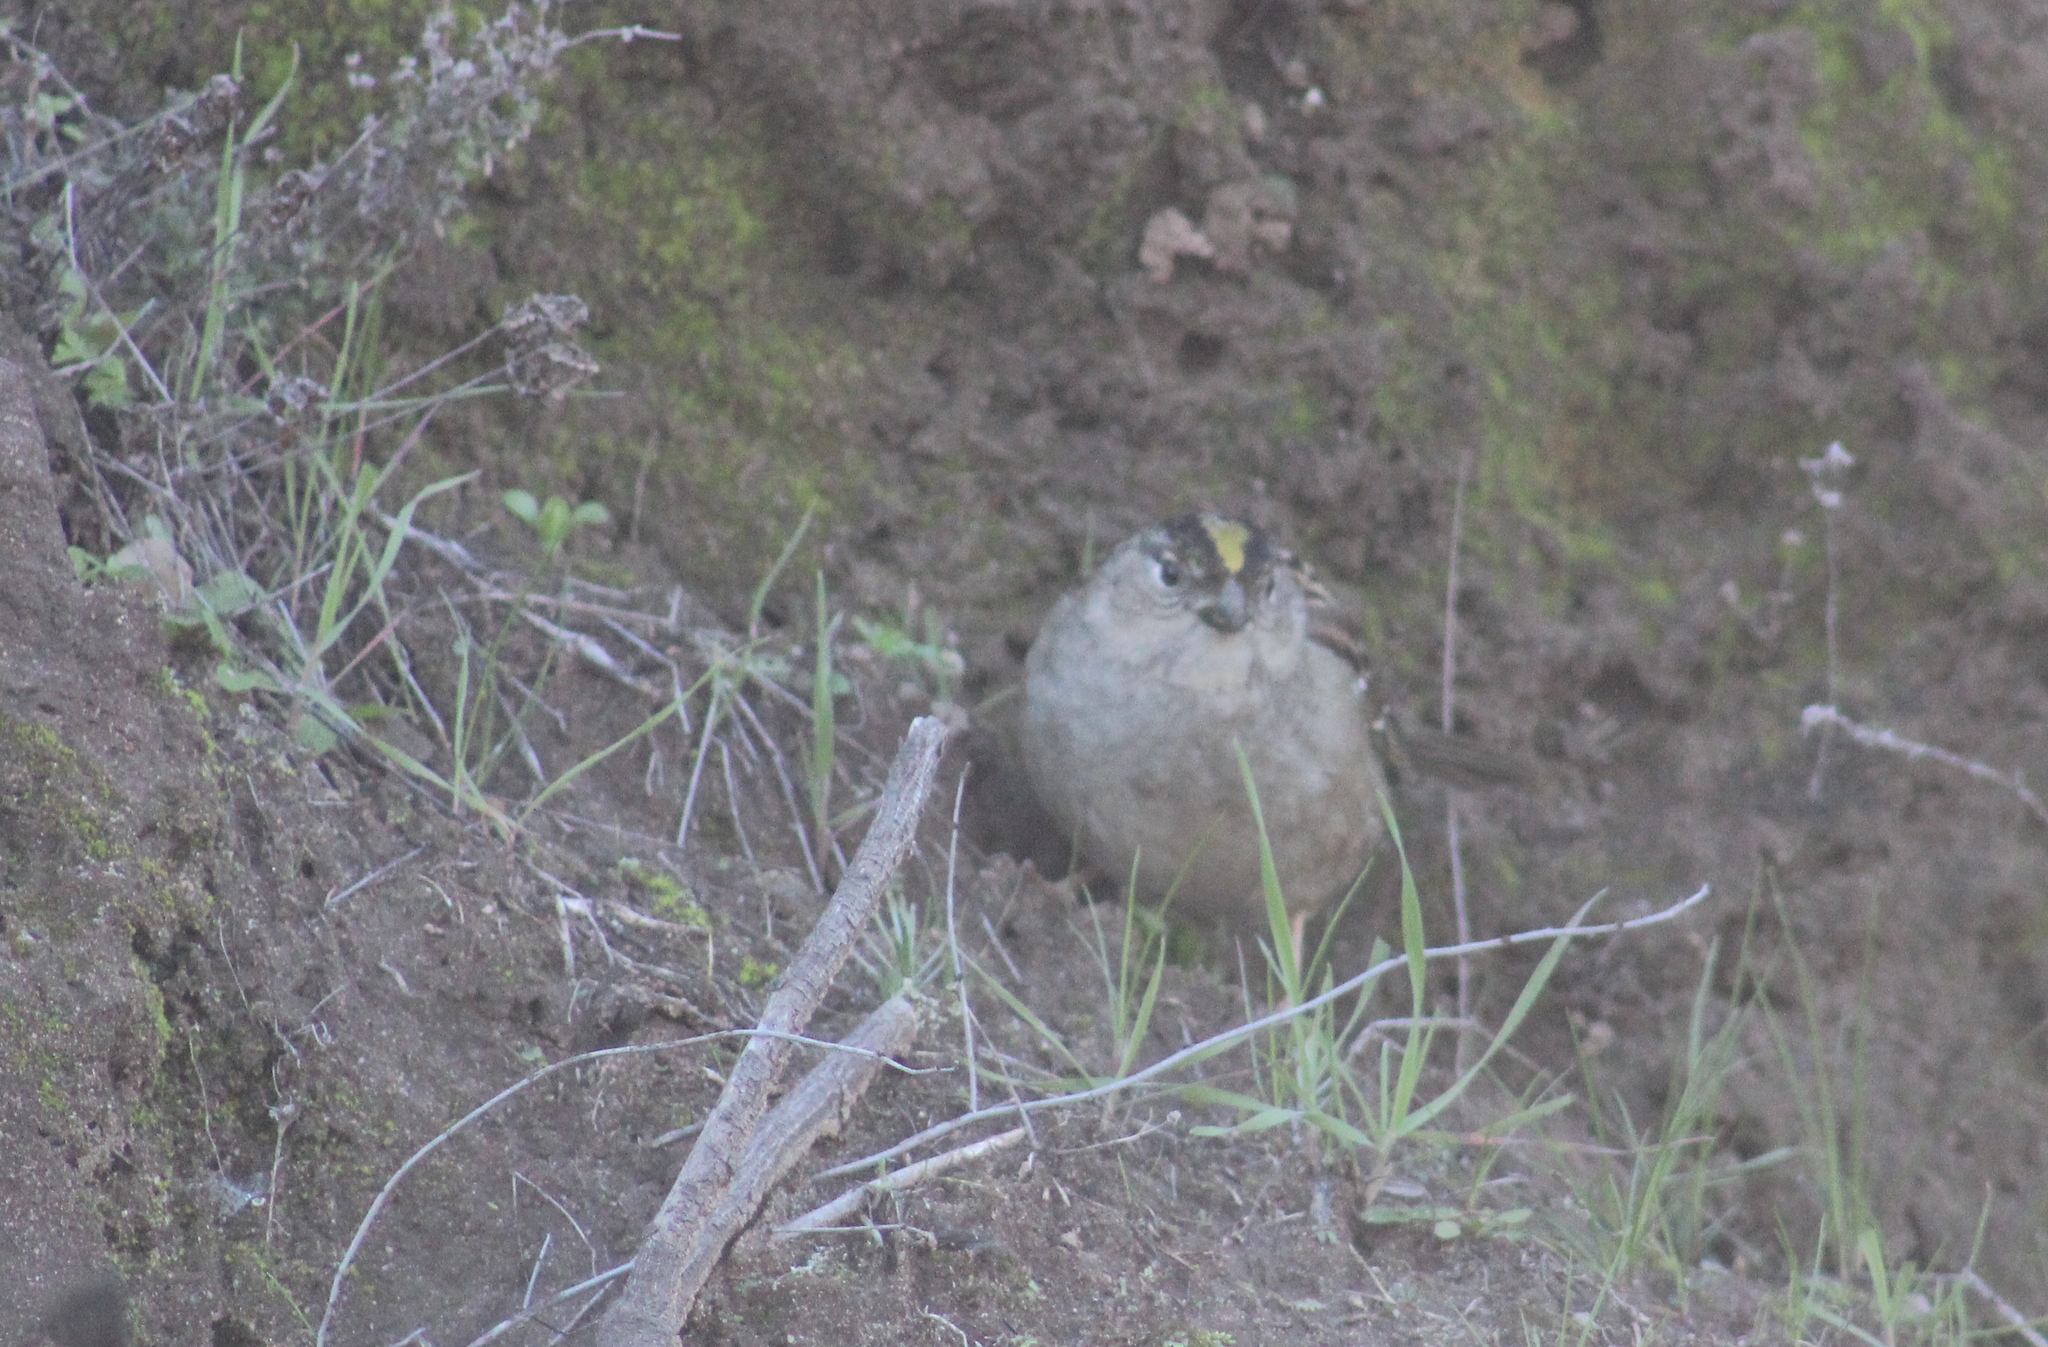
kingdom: Animalia
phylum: Chordata
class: Aves
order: Passeriformes
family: Passerellidae
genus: Zonotrichia
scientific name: Zonotrichia atricapilla
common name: Golden-crowned sparrow
